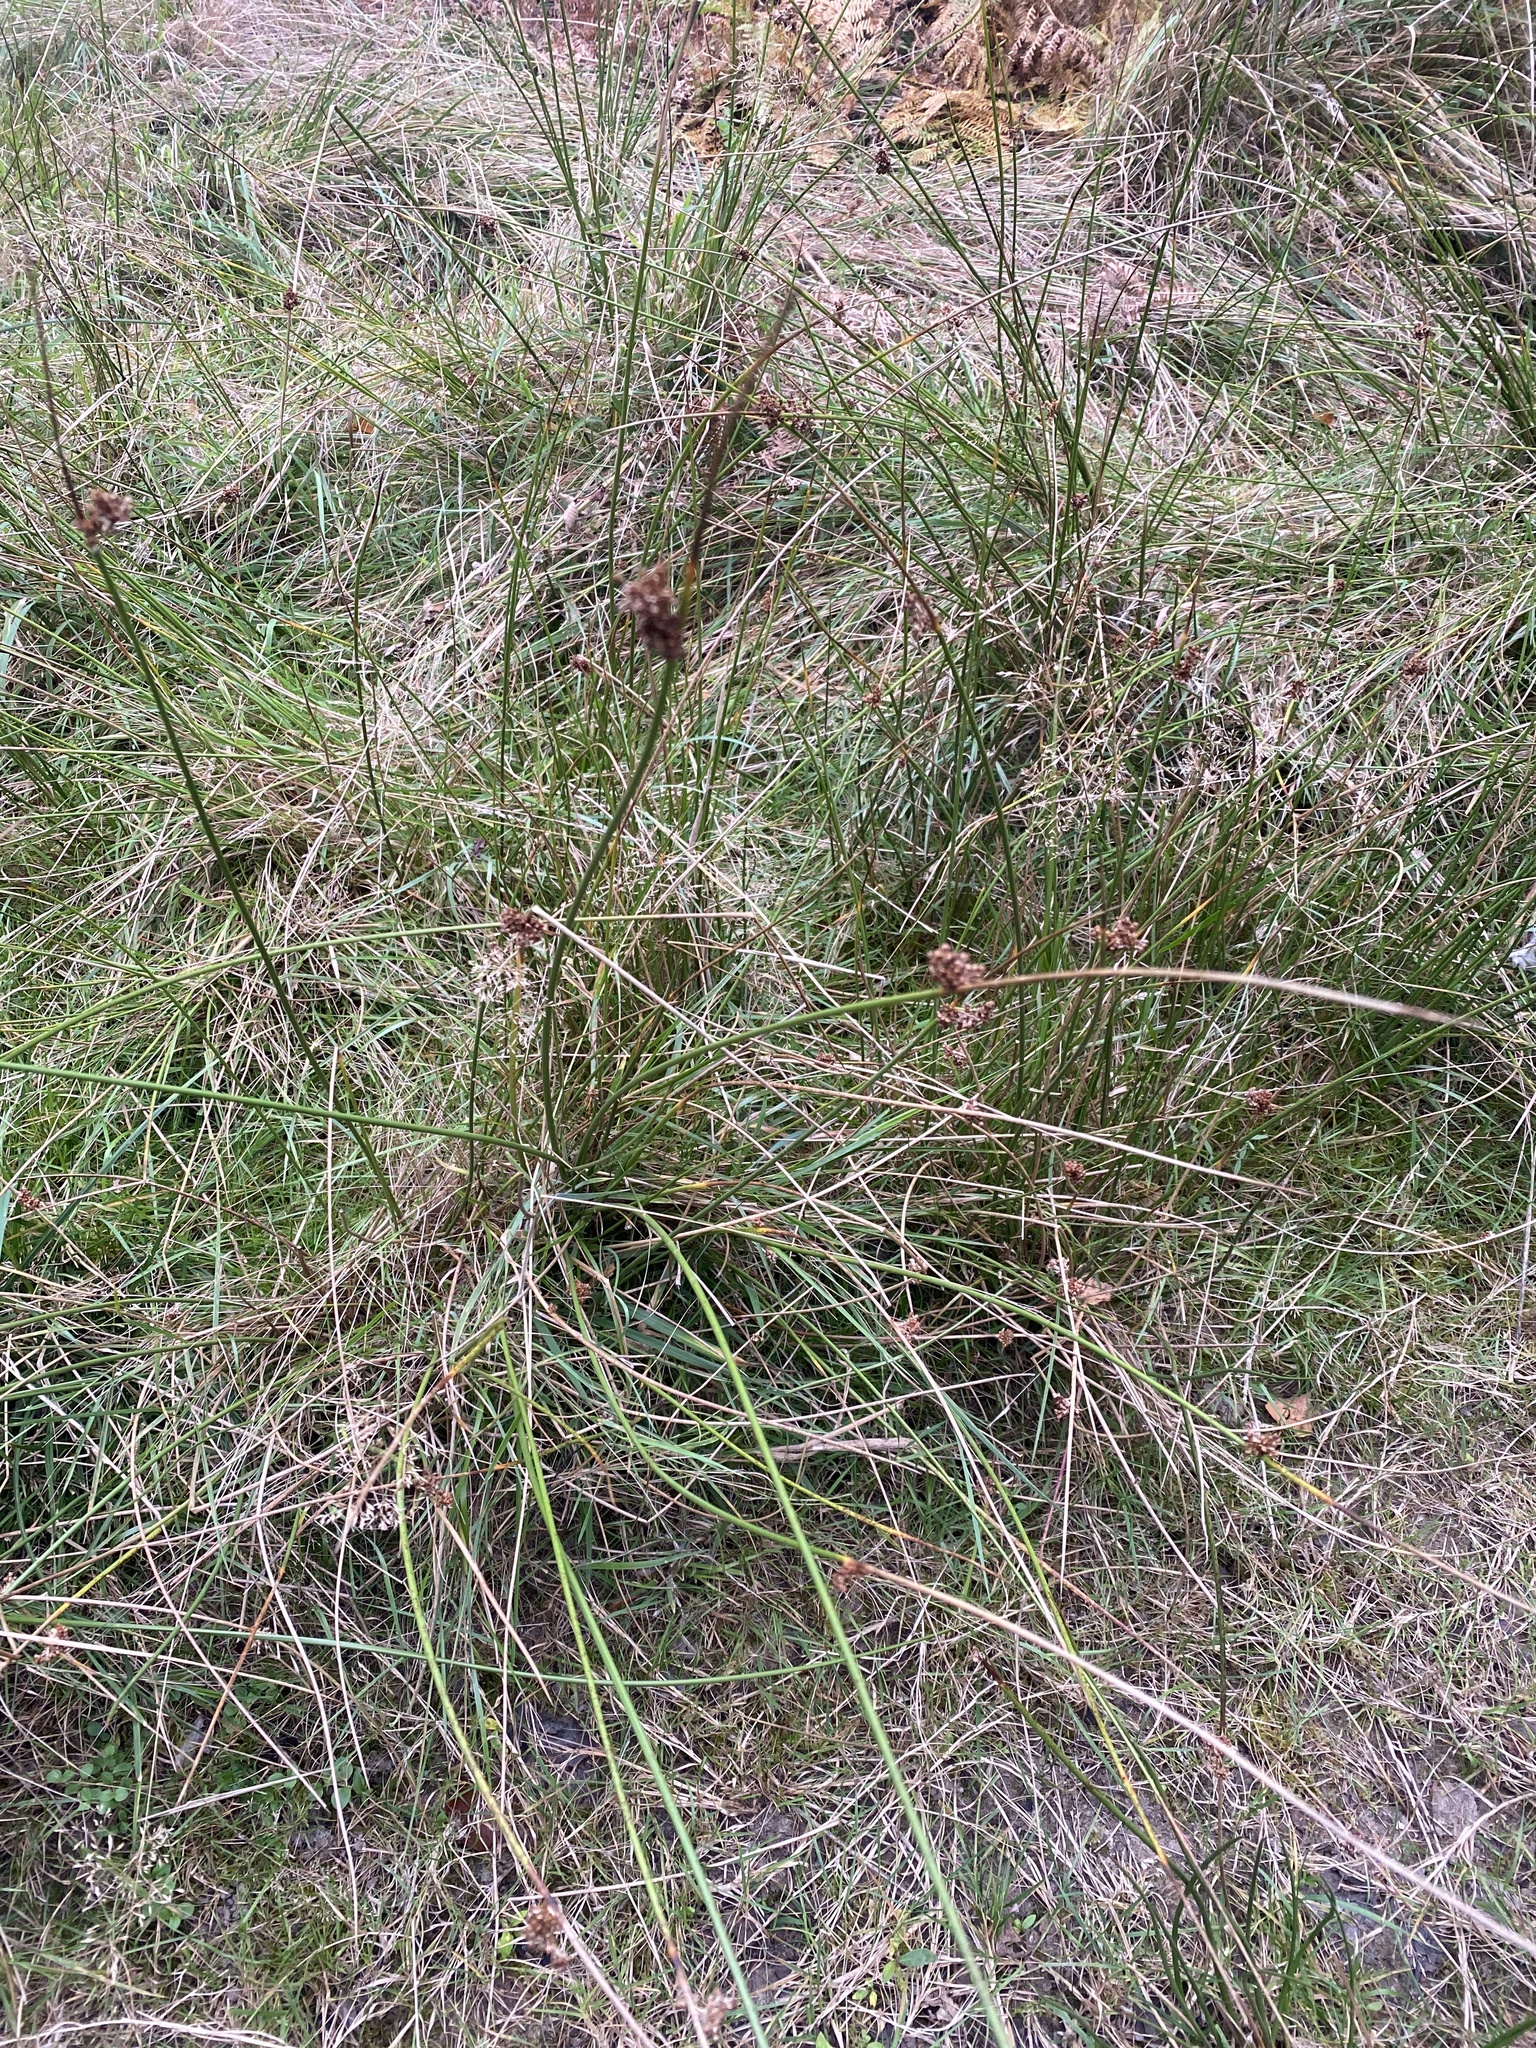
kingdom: Plantae
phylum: Tracheophyta
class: Liliopsida
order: Poales
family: Juncaceae
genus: Juncus
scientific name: Juncus effusus
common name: Soft rush
